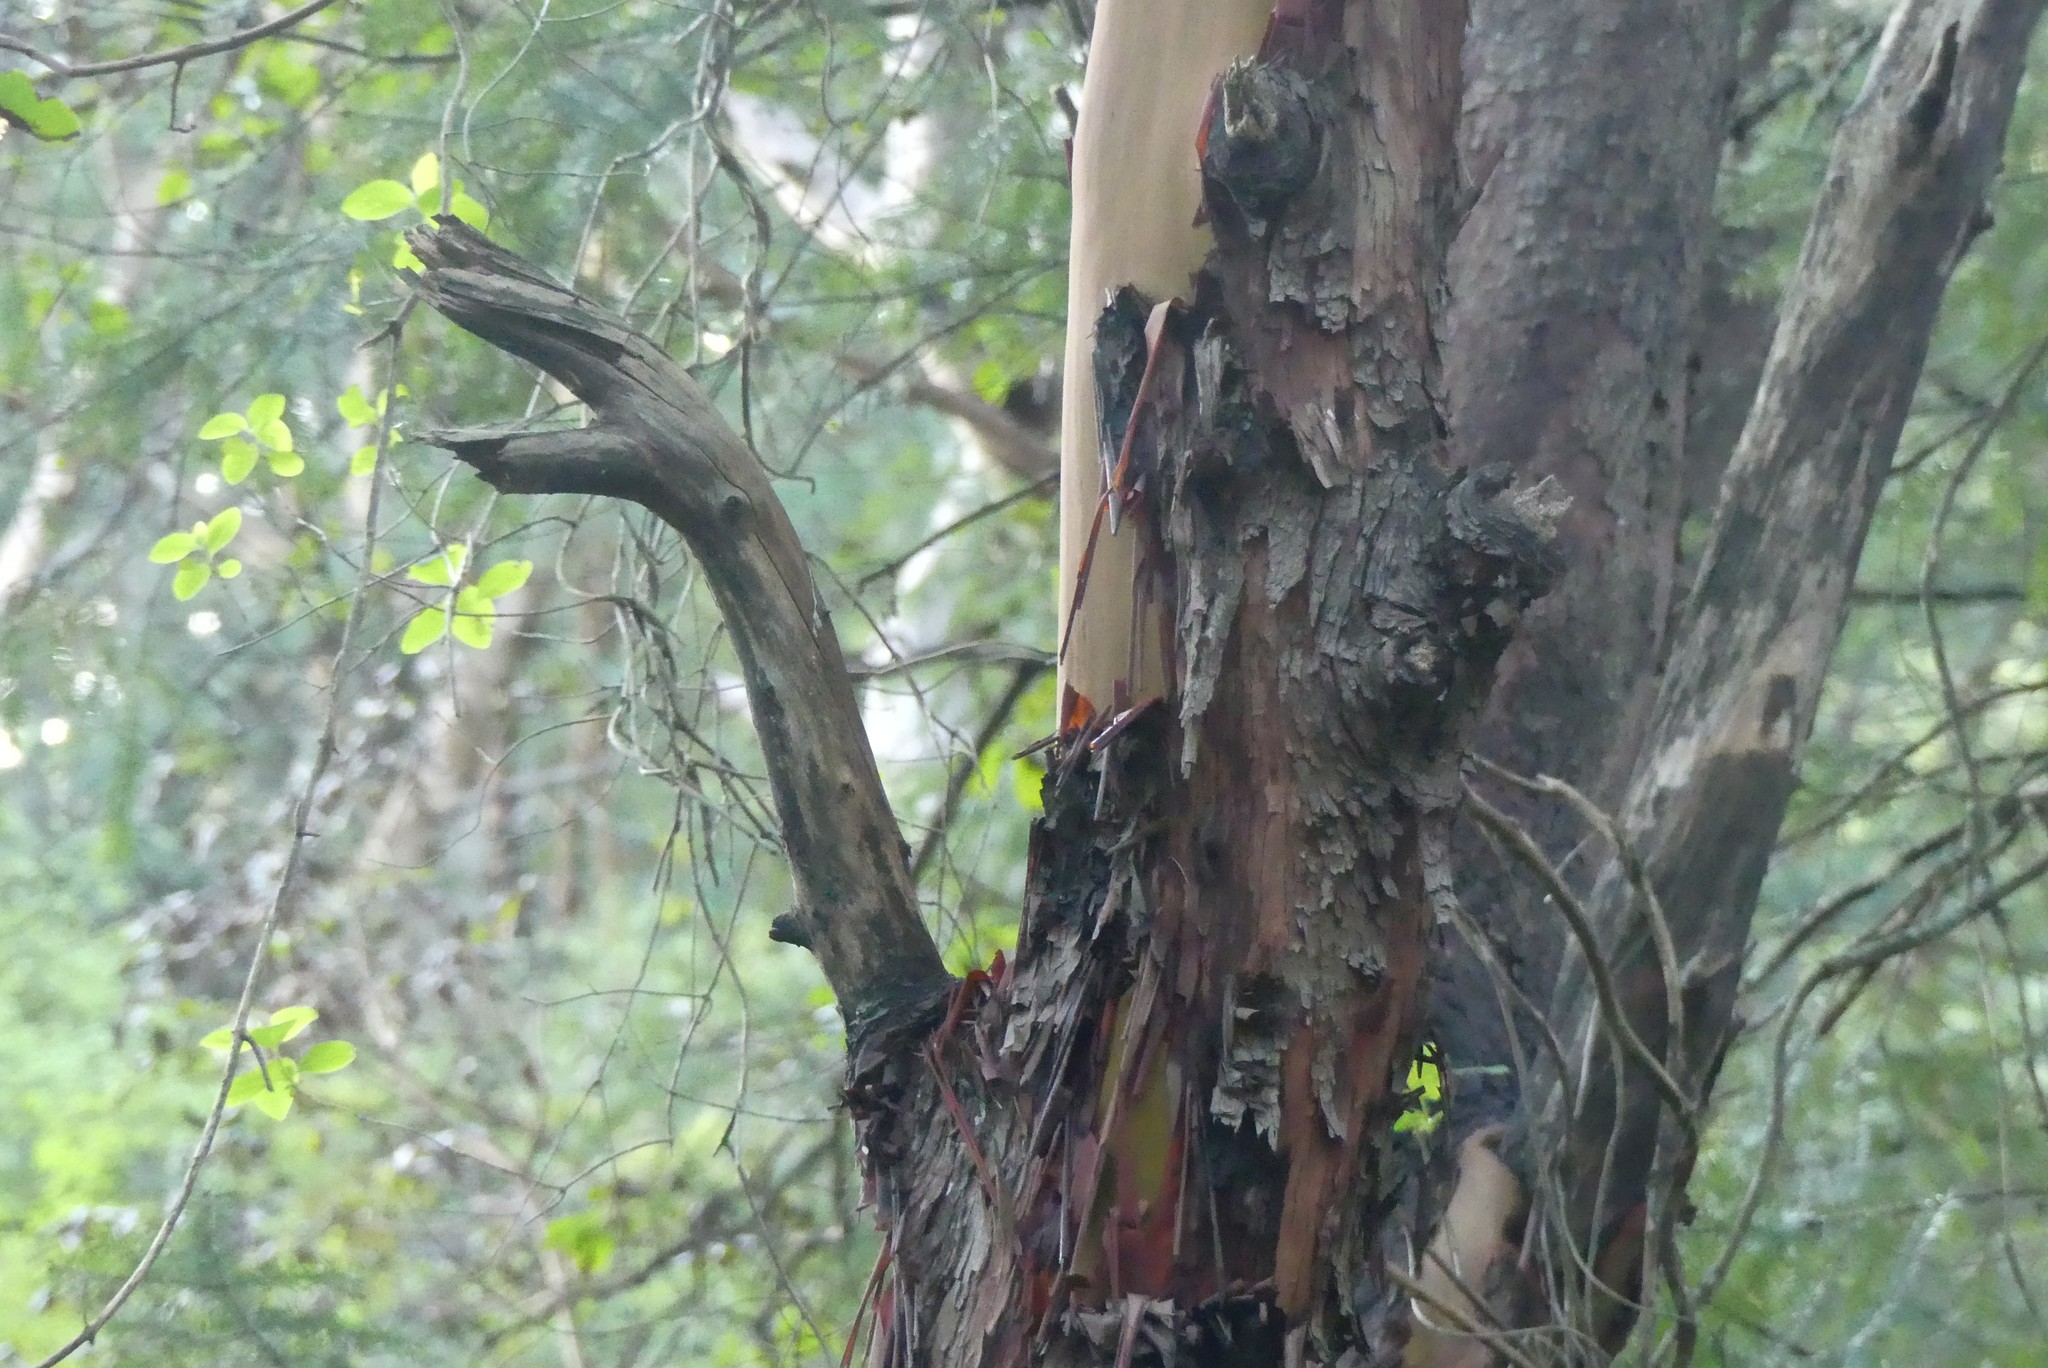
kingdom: Plantae
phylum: Tracheophyta
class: Magnoliopsida
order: Ericales
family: Ericaceae
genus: Arbutus
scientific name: Arbutus menziesii
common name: Pacific madrone
